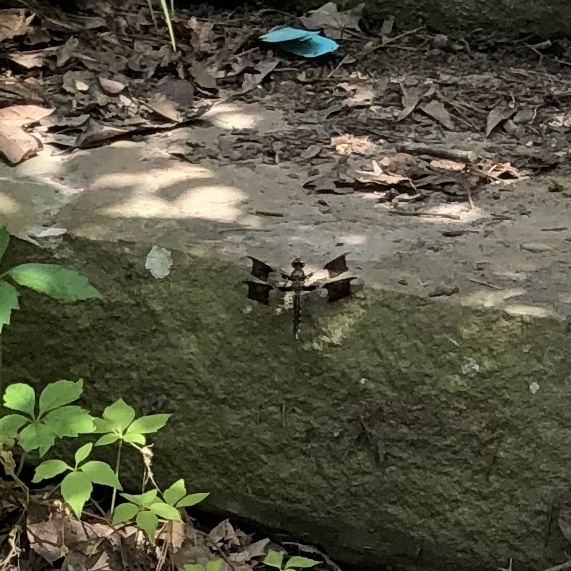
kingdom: Animalia
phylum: Arthropoda
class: Insecta
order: Odonata
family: Libellulidae
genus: Plathemis
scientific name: Plathemis lydia
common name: Common whitetail
